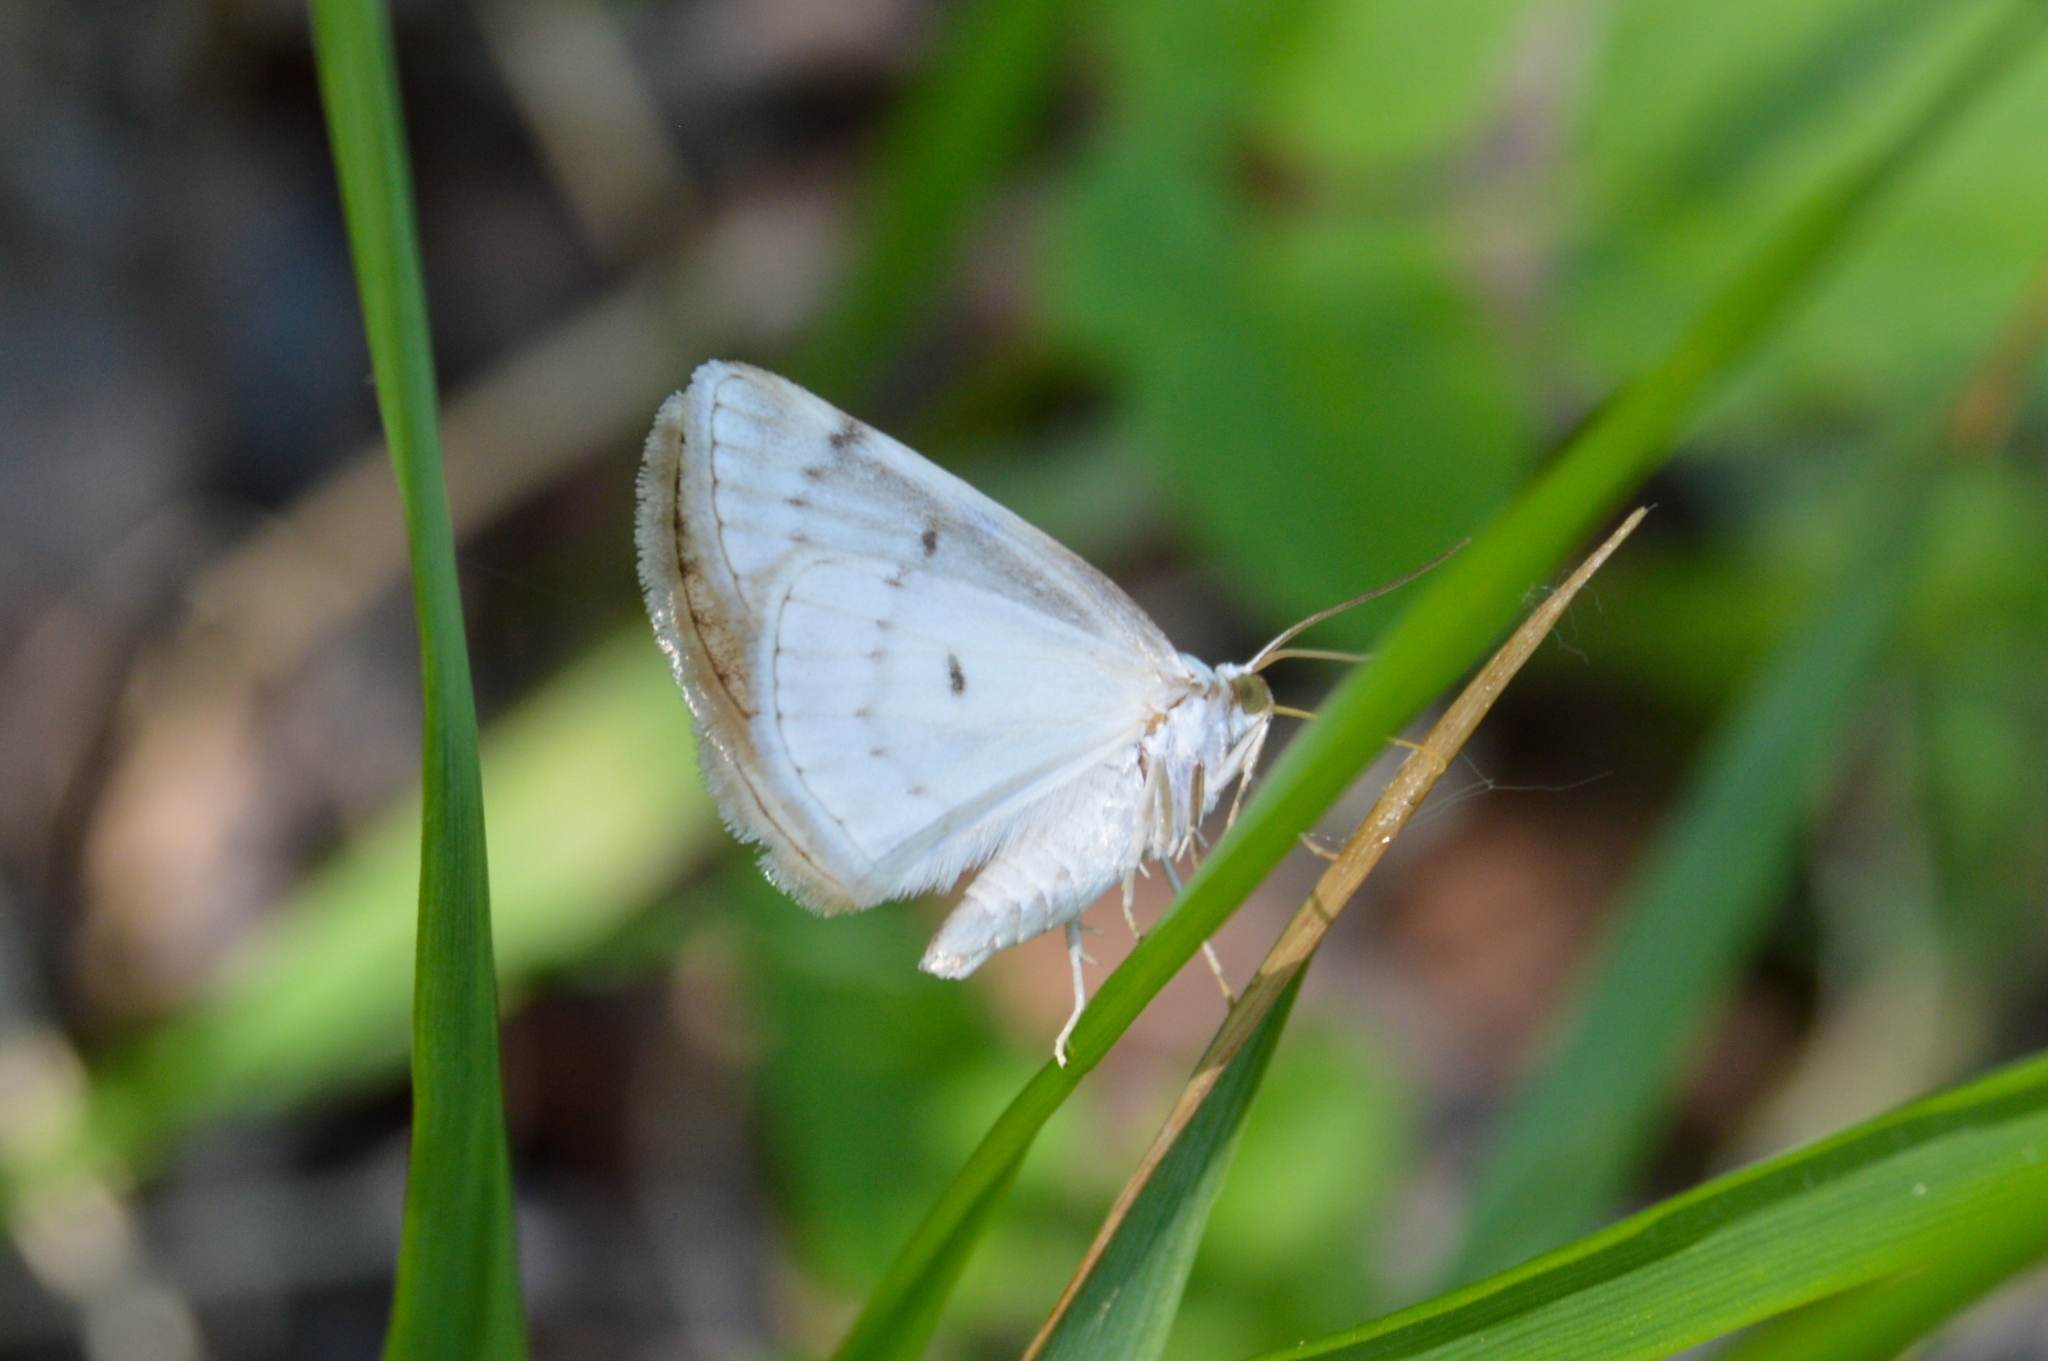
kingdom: Animalia
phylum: Arthropoda
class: Insecta
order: Lepidoptera
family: Geometridae
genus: Lomographa
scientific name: Lomographa bimaculata
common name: White-pinion spotted
